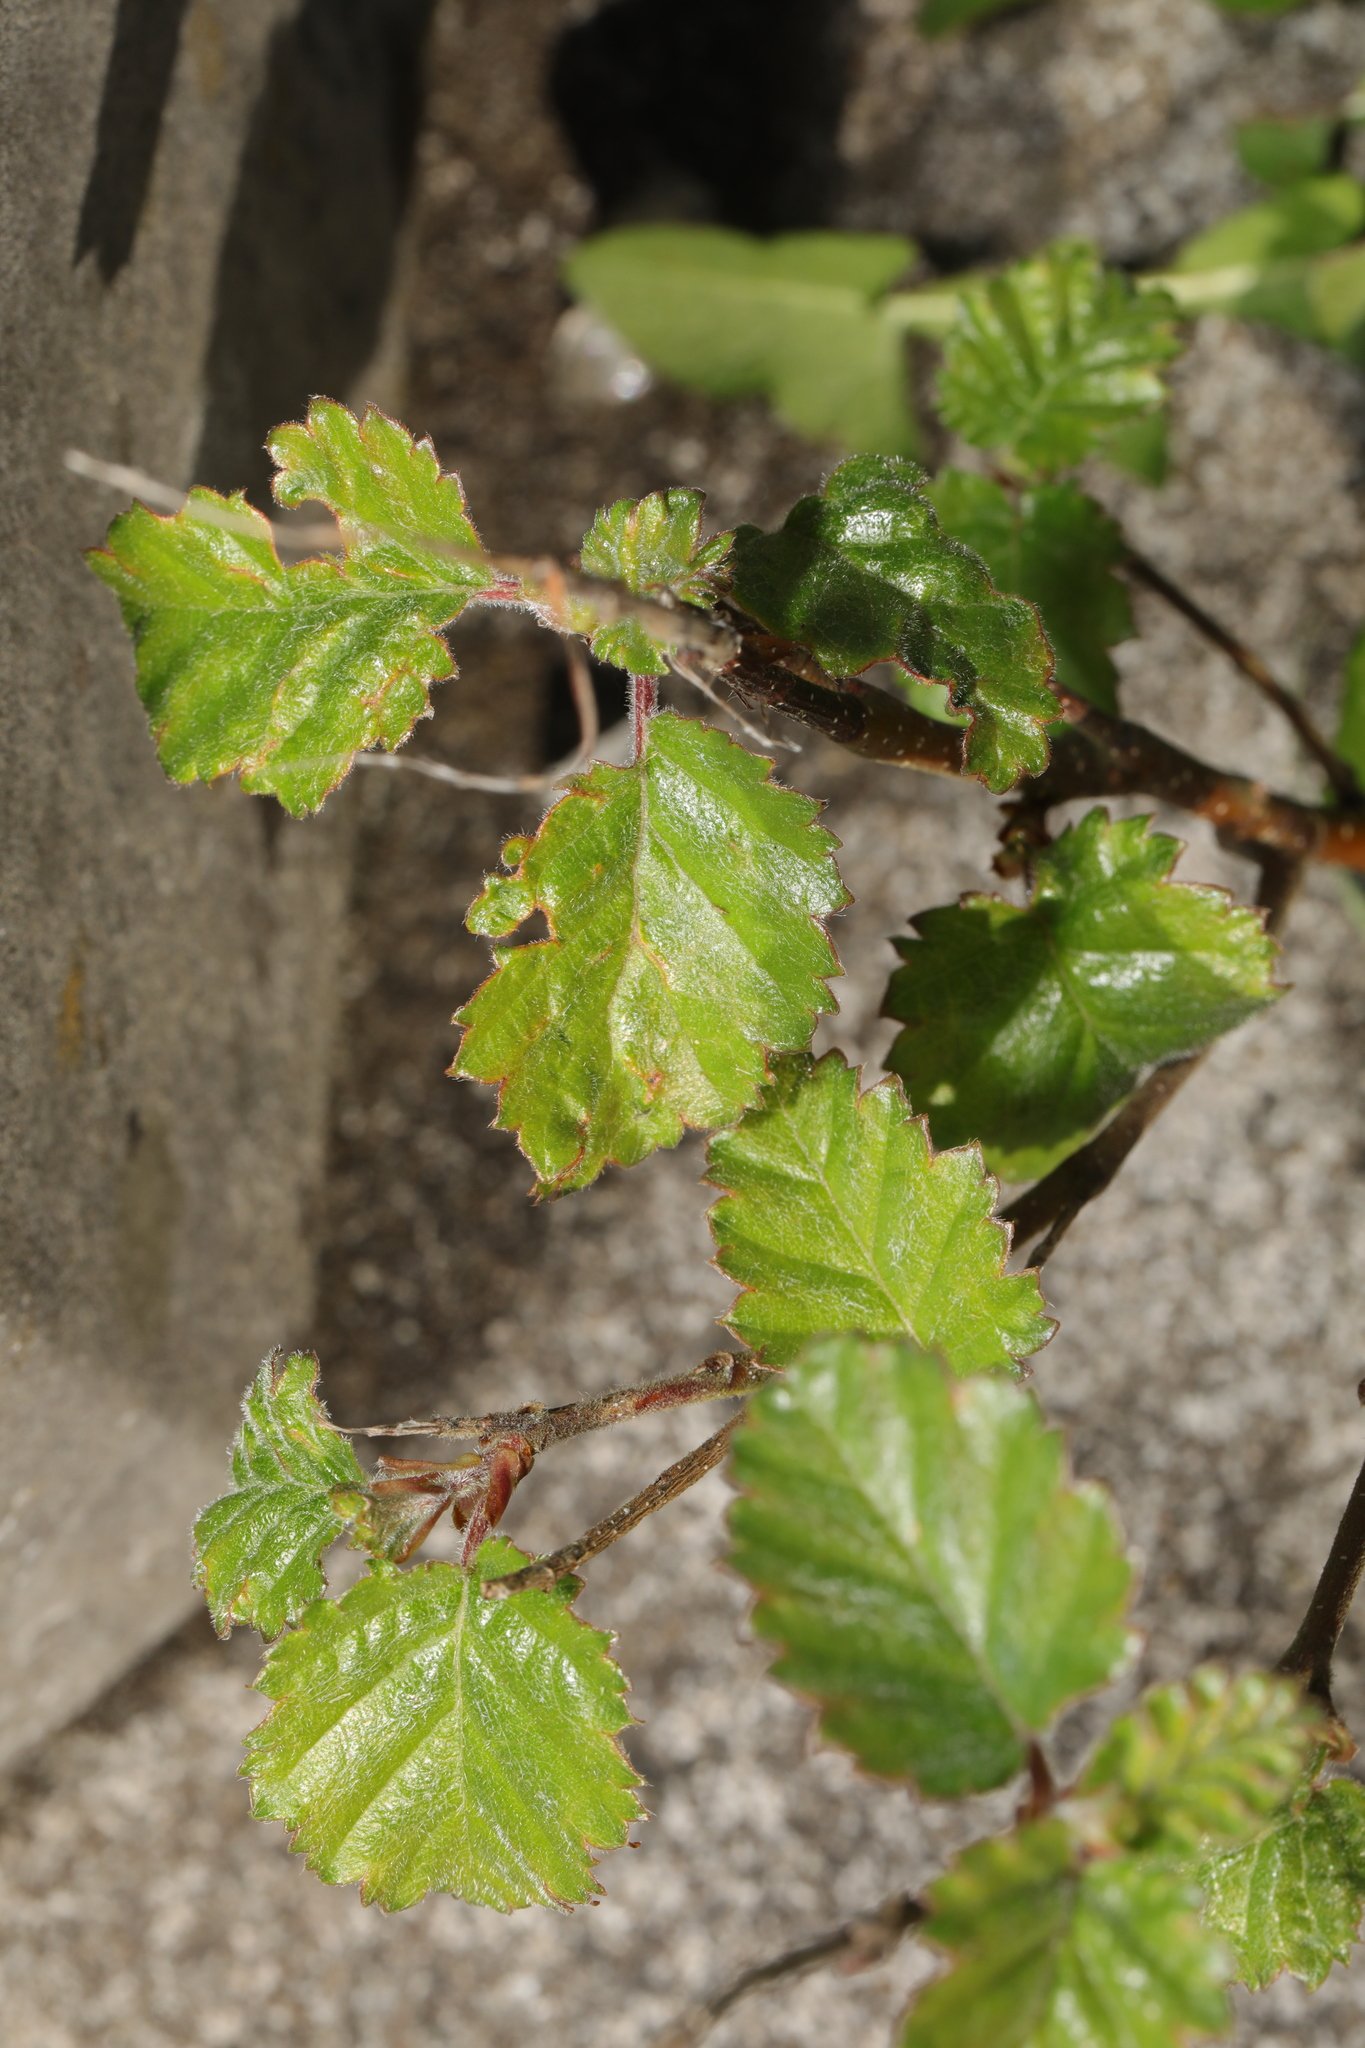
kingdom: Plantae
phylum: Tracheophyta
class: Magnoliopsida
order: Fagales
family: Betulaceae
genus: Betula
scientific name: Betula pubescens
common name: Downy birch
